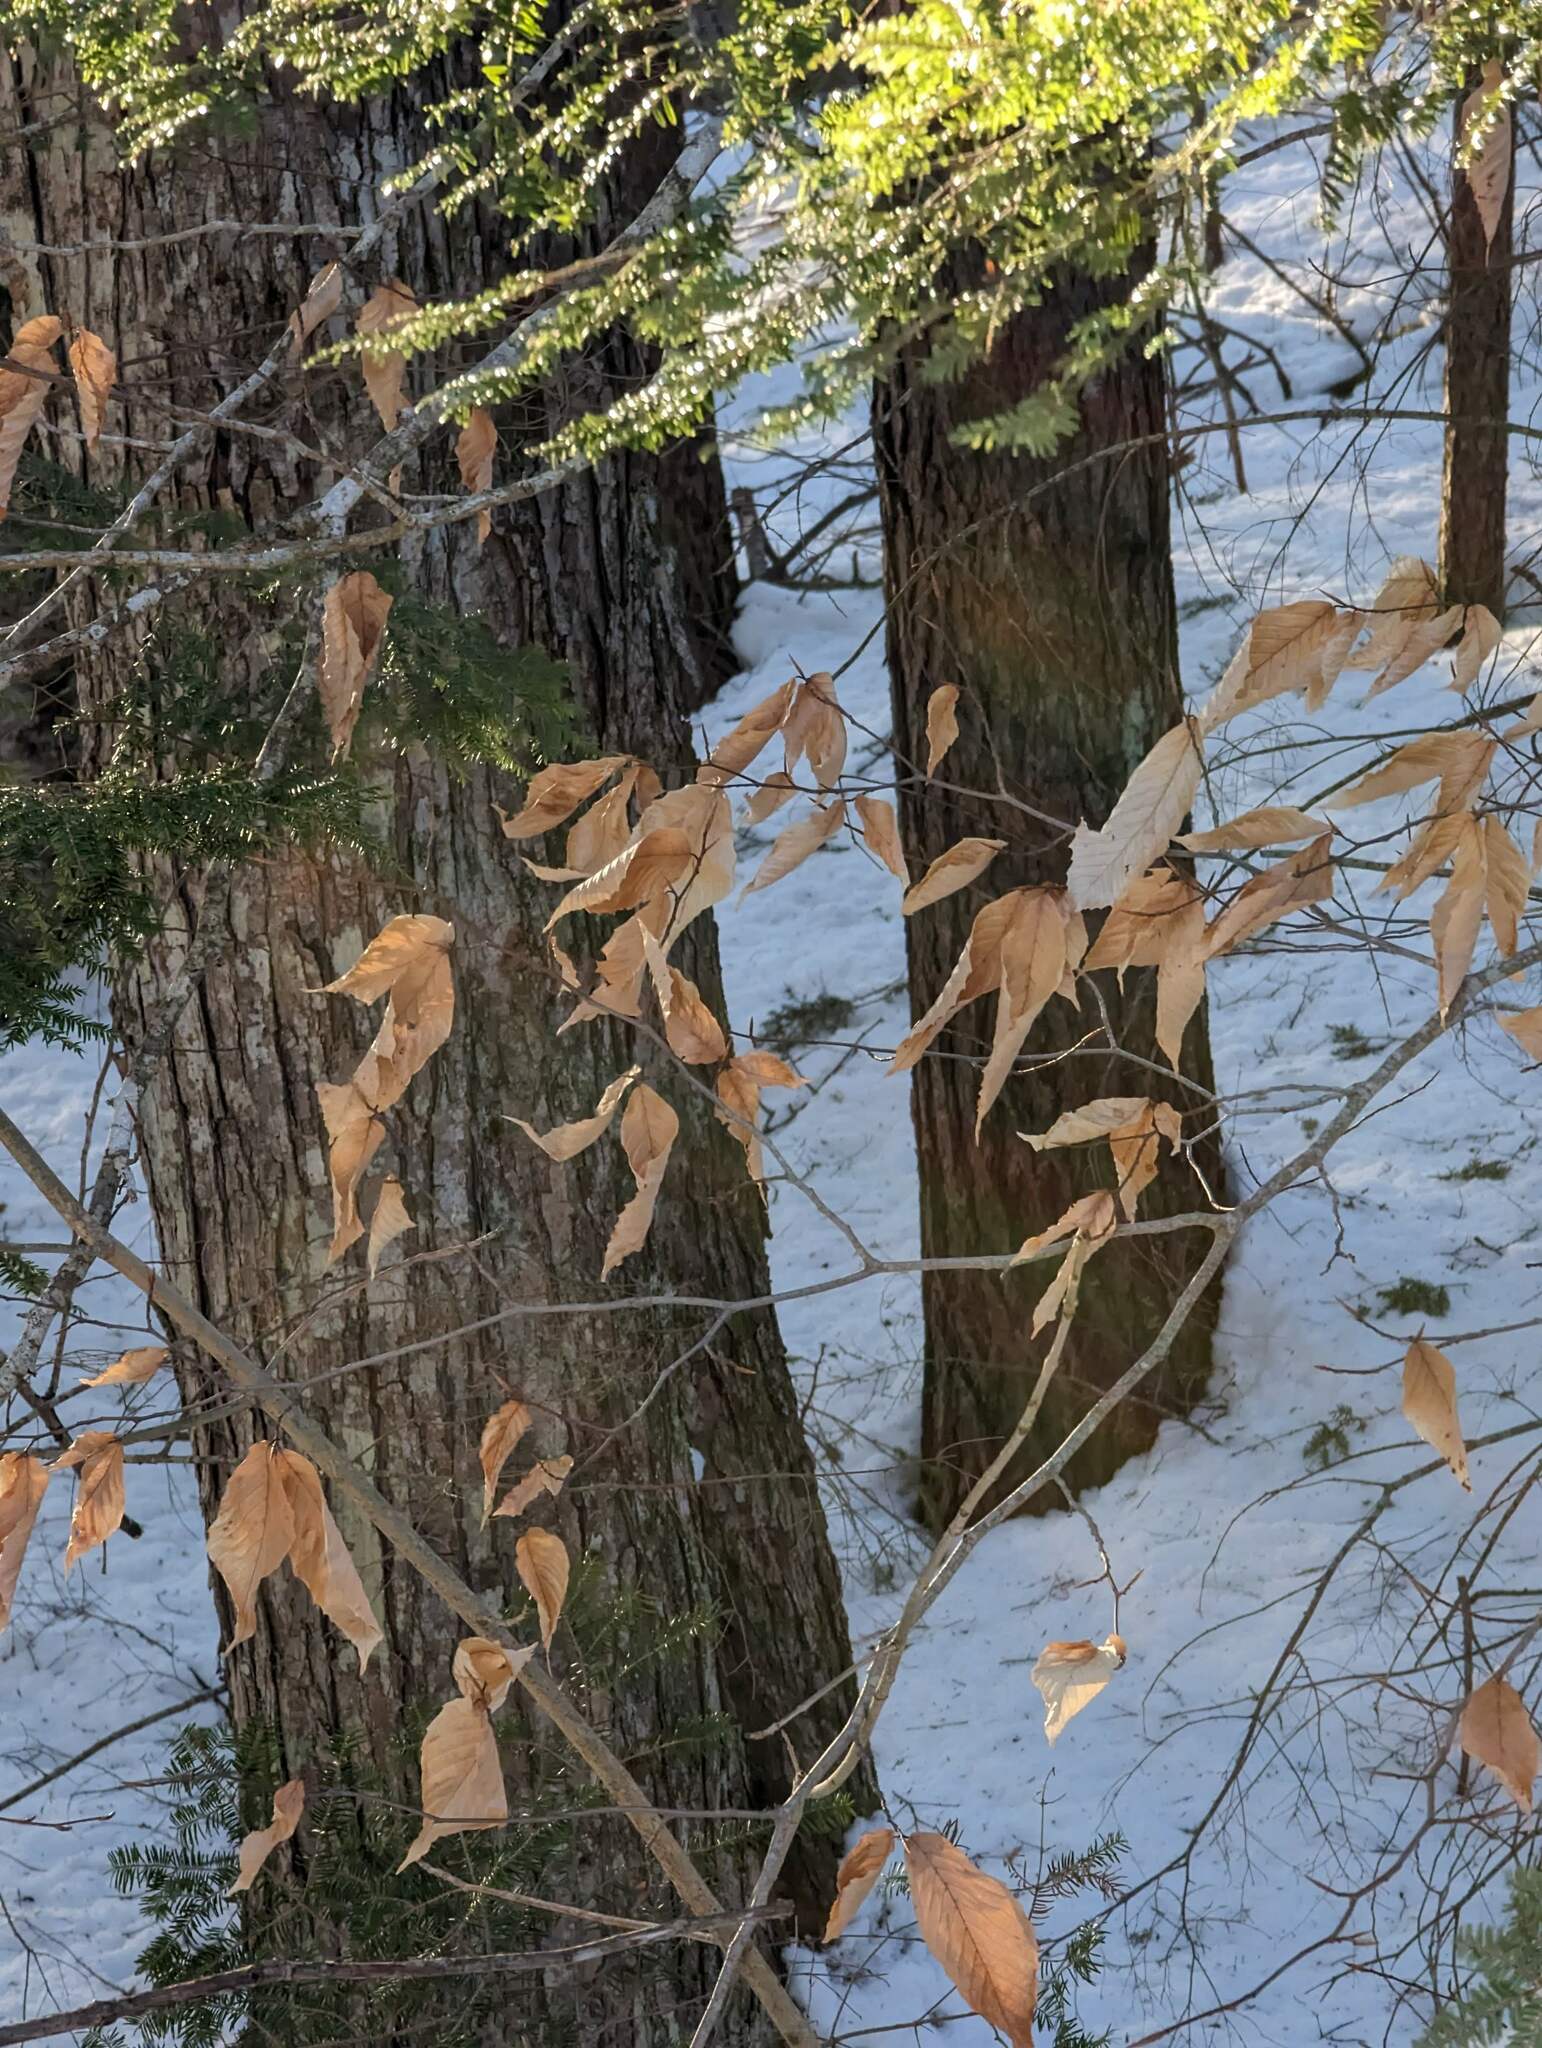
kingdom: Plantae
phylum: Tracheophyta
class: Magnoliopsida
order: Fagales
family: Fagaceae
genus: Fagus
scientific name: Fagus grandifolia
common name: American beech
